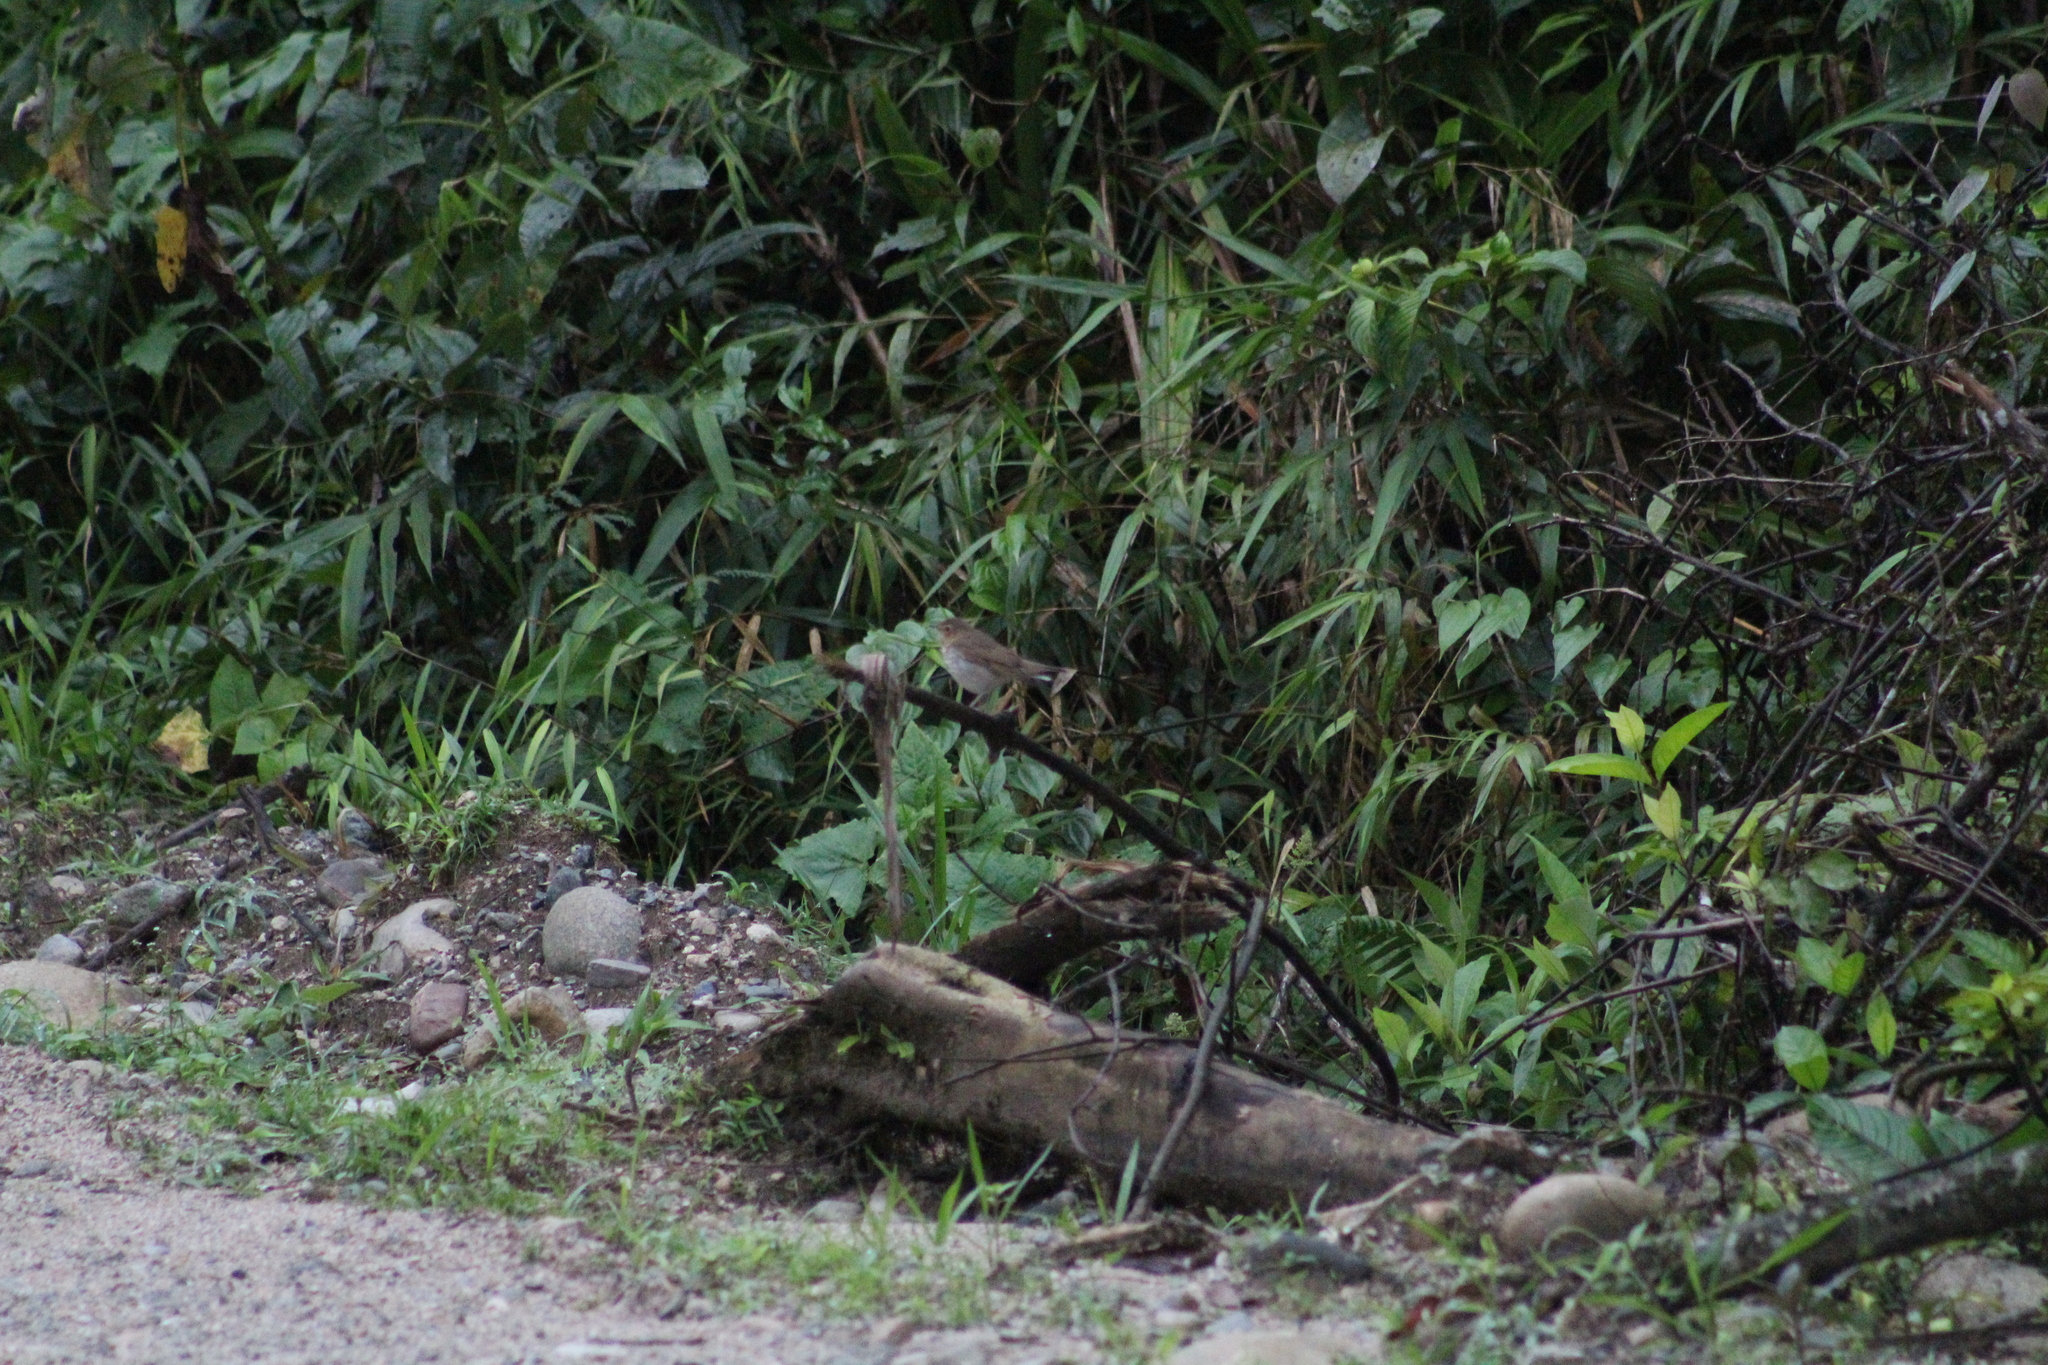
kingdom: Animalia
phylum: Chordata
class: Aves
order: Passeriformes
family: Turdidae
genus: Catharus
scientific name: Catharus ustulatus
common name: Swainson's thrush
